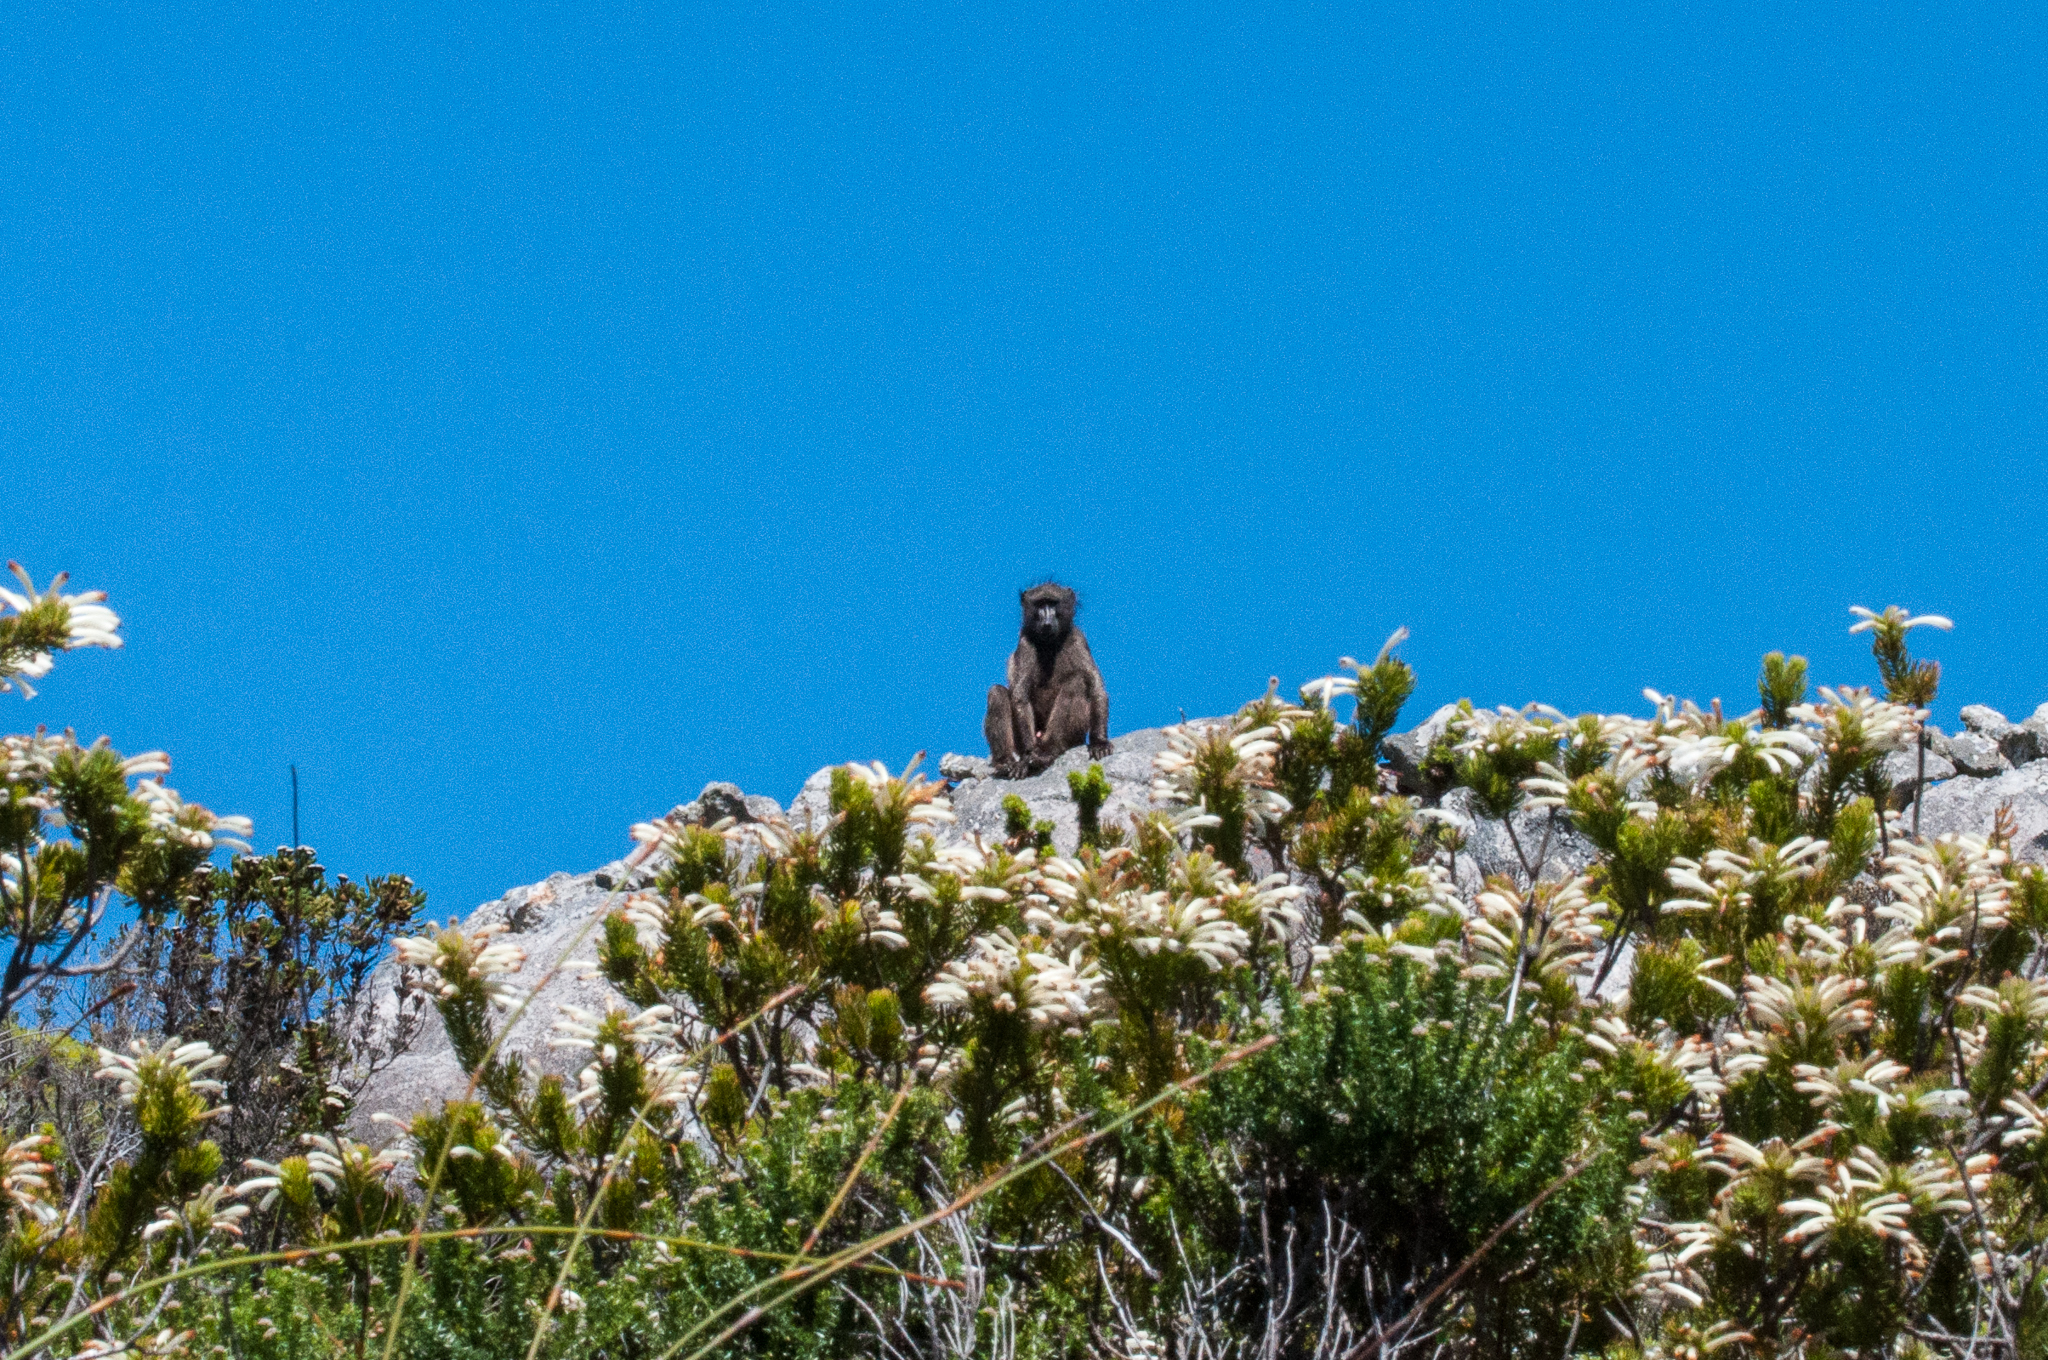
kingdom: Animalia
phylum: Chordata
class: Mammalia
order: Primates
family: Cercopithecidae
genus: Papio
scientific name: Papio ursinus
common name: Chacma baboon
